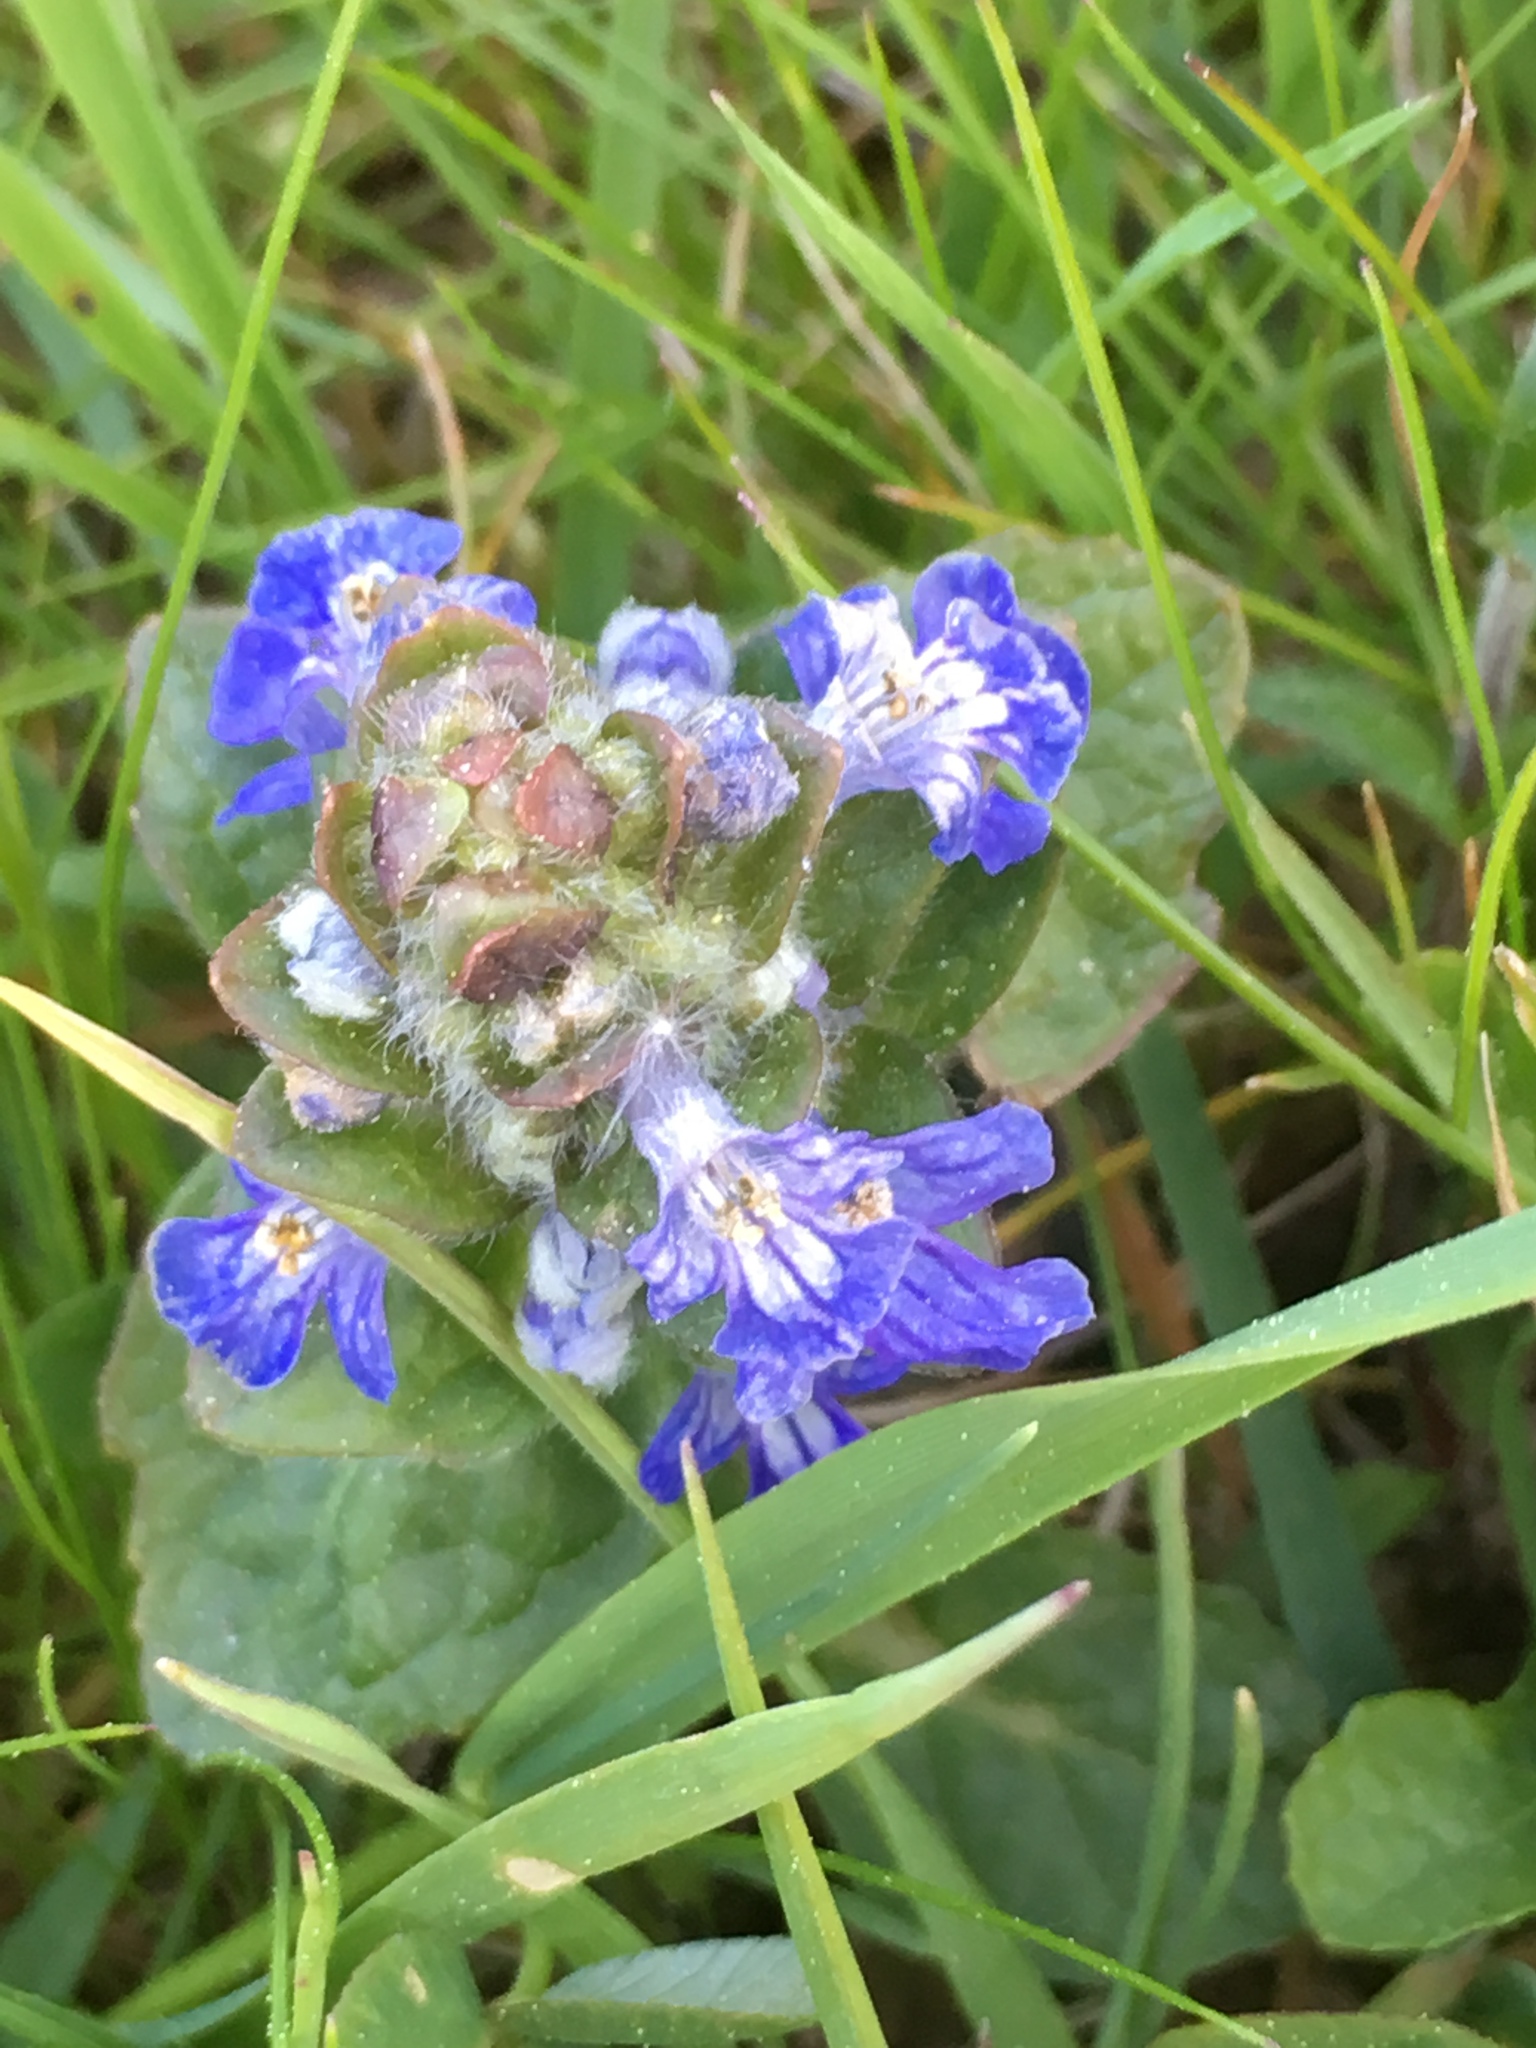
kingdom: Plantae
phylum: Tracheophyta
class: Magnoliopsida
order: Lamiales
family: Lamiaceae
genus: Ajuga
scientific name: Ajuga reptans
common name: Bugle
